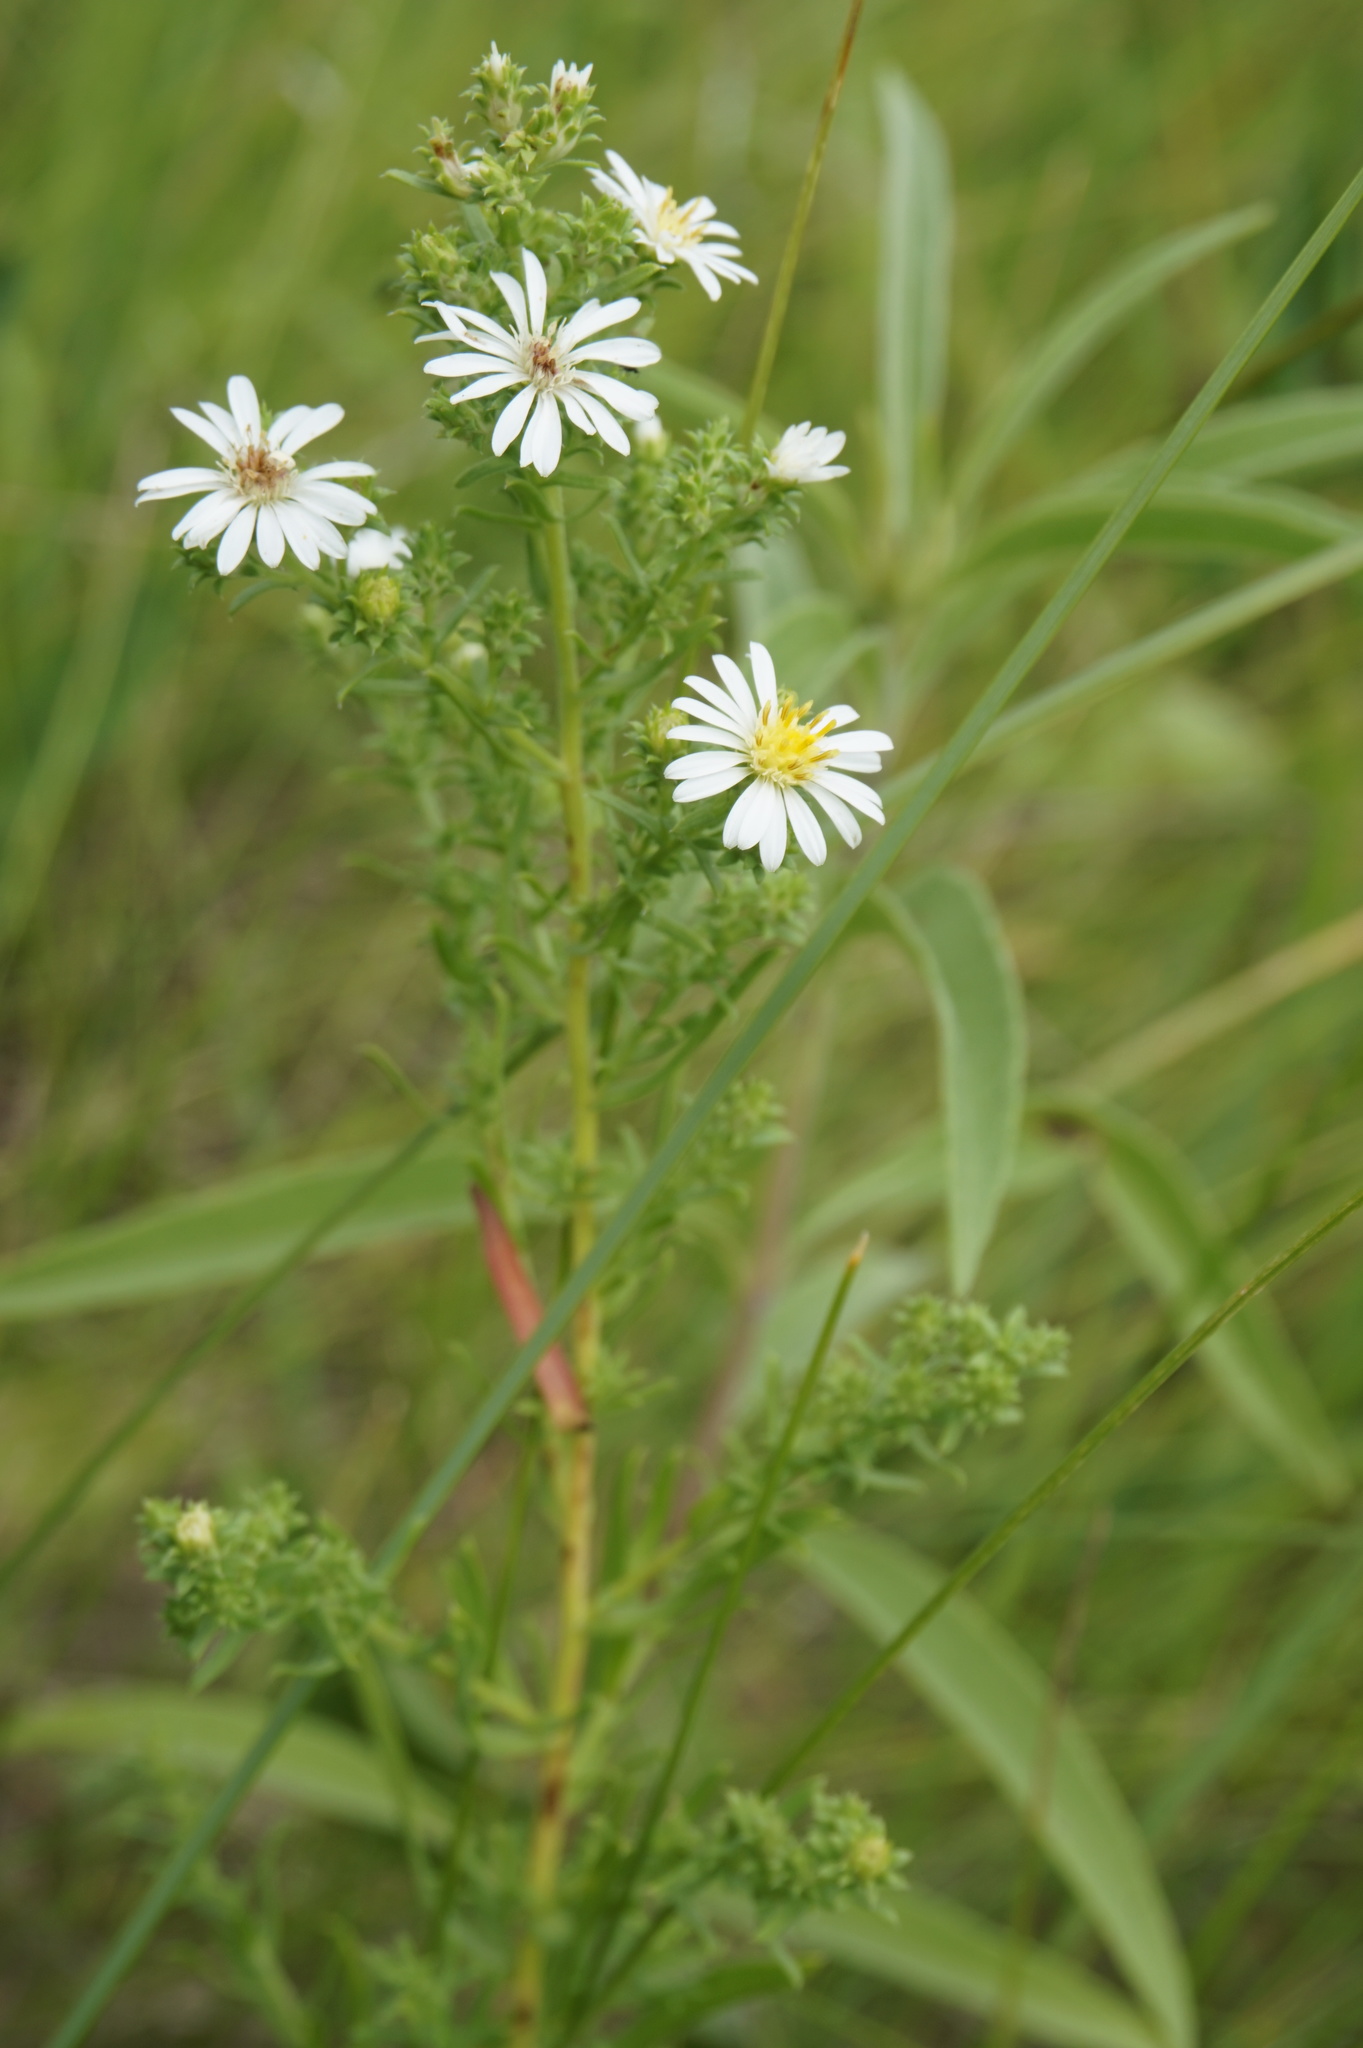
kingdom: Plantae
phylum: Tracheophyta
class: Magnoliopsida
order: Asterales
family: Asteraceae
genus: Symphyotrichum
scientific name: Symphyotrichum ericoides
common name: Heath aster
